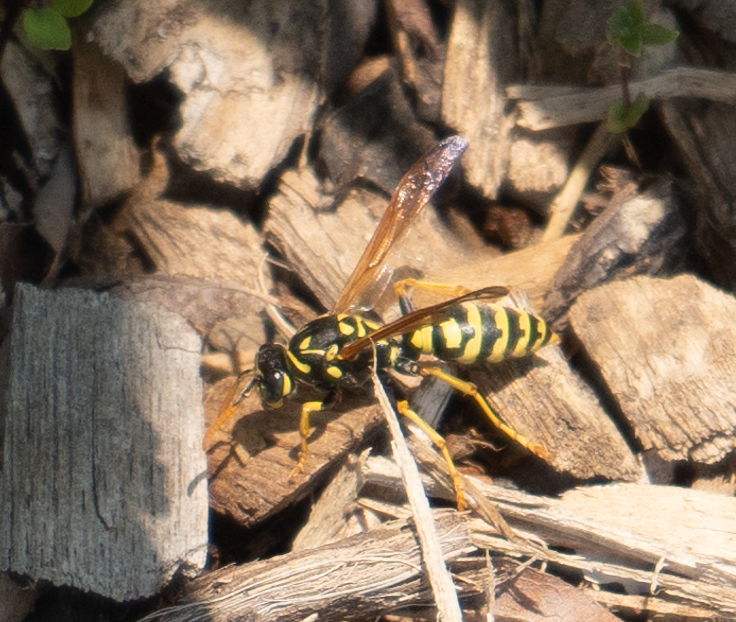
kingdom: Animalia
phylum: Arthropoda
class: Insecta
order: Hymenoptera
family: Eumenidae
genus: Polistes
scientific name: Polistes dominula
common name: Paper wasp
